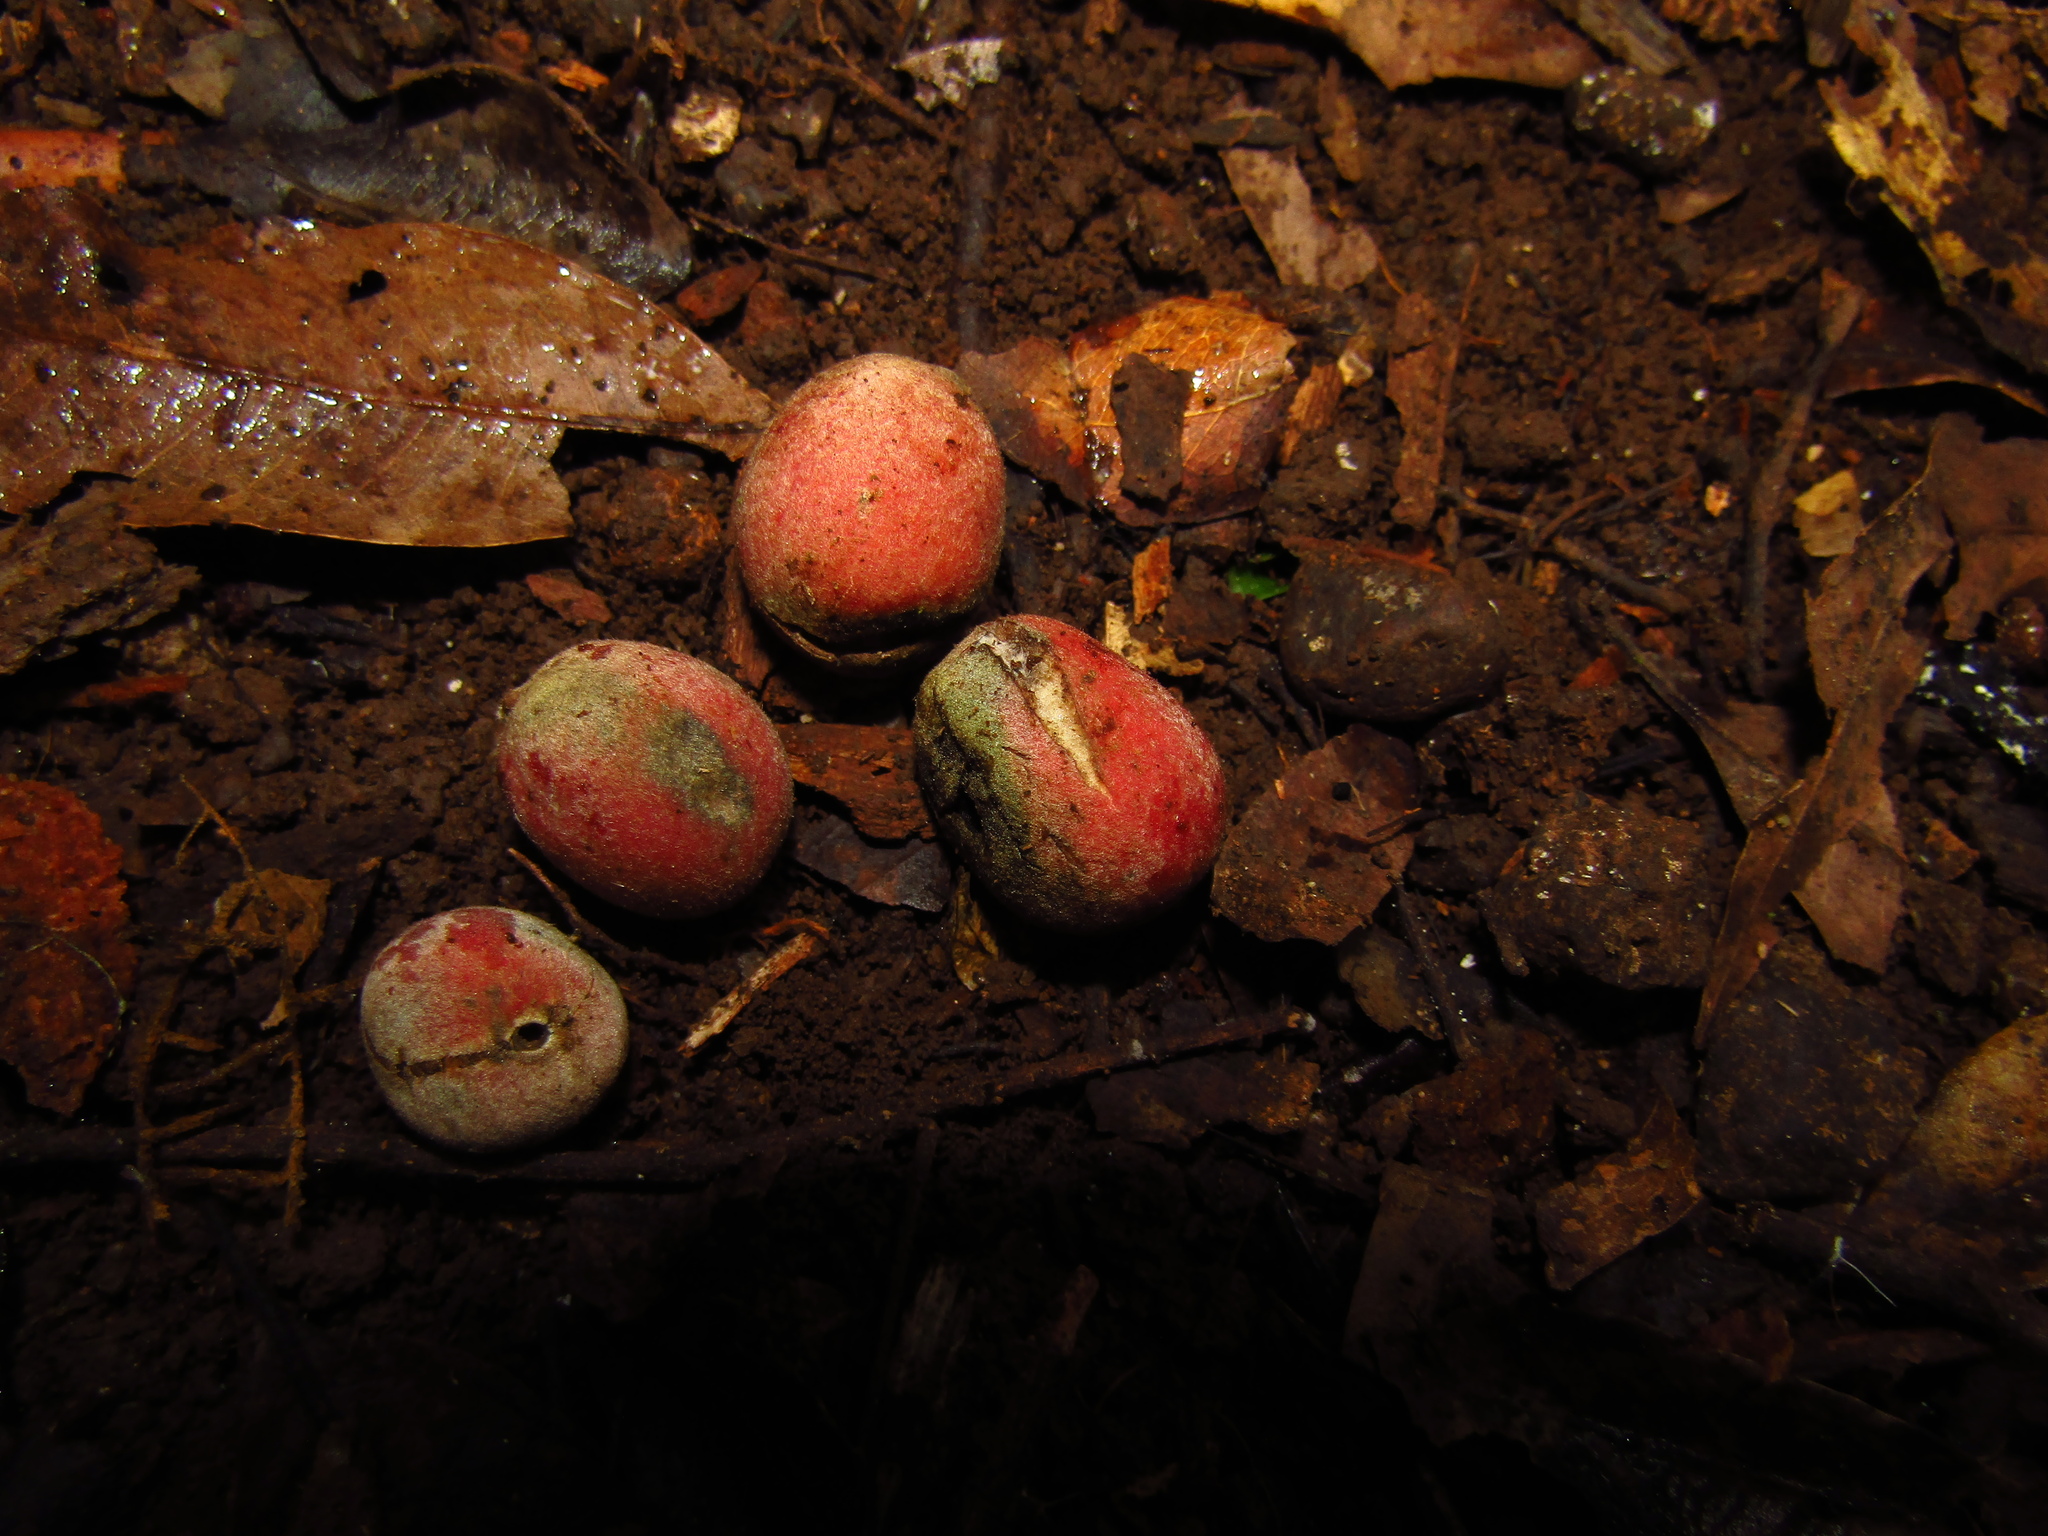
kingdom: Plantae
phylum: Tracheophyta
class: Magnoliopsida
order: Ranunculales
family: Menispermaceae
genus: Carronia
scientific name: Carronia multisepalea
